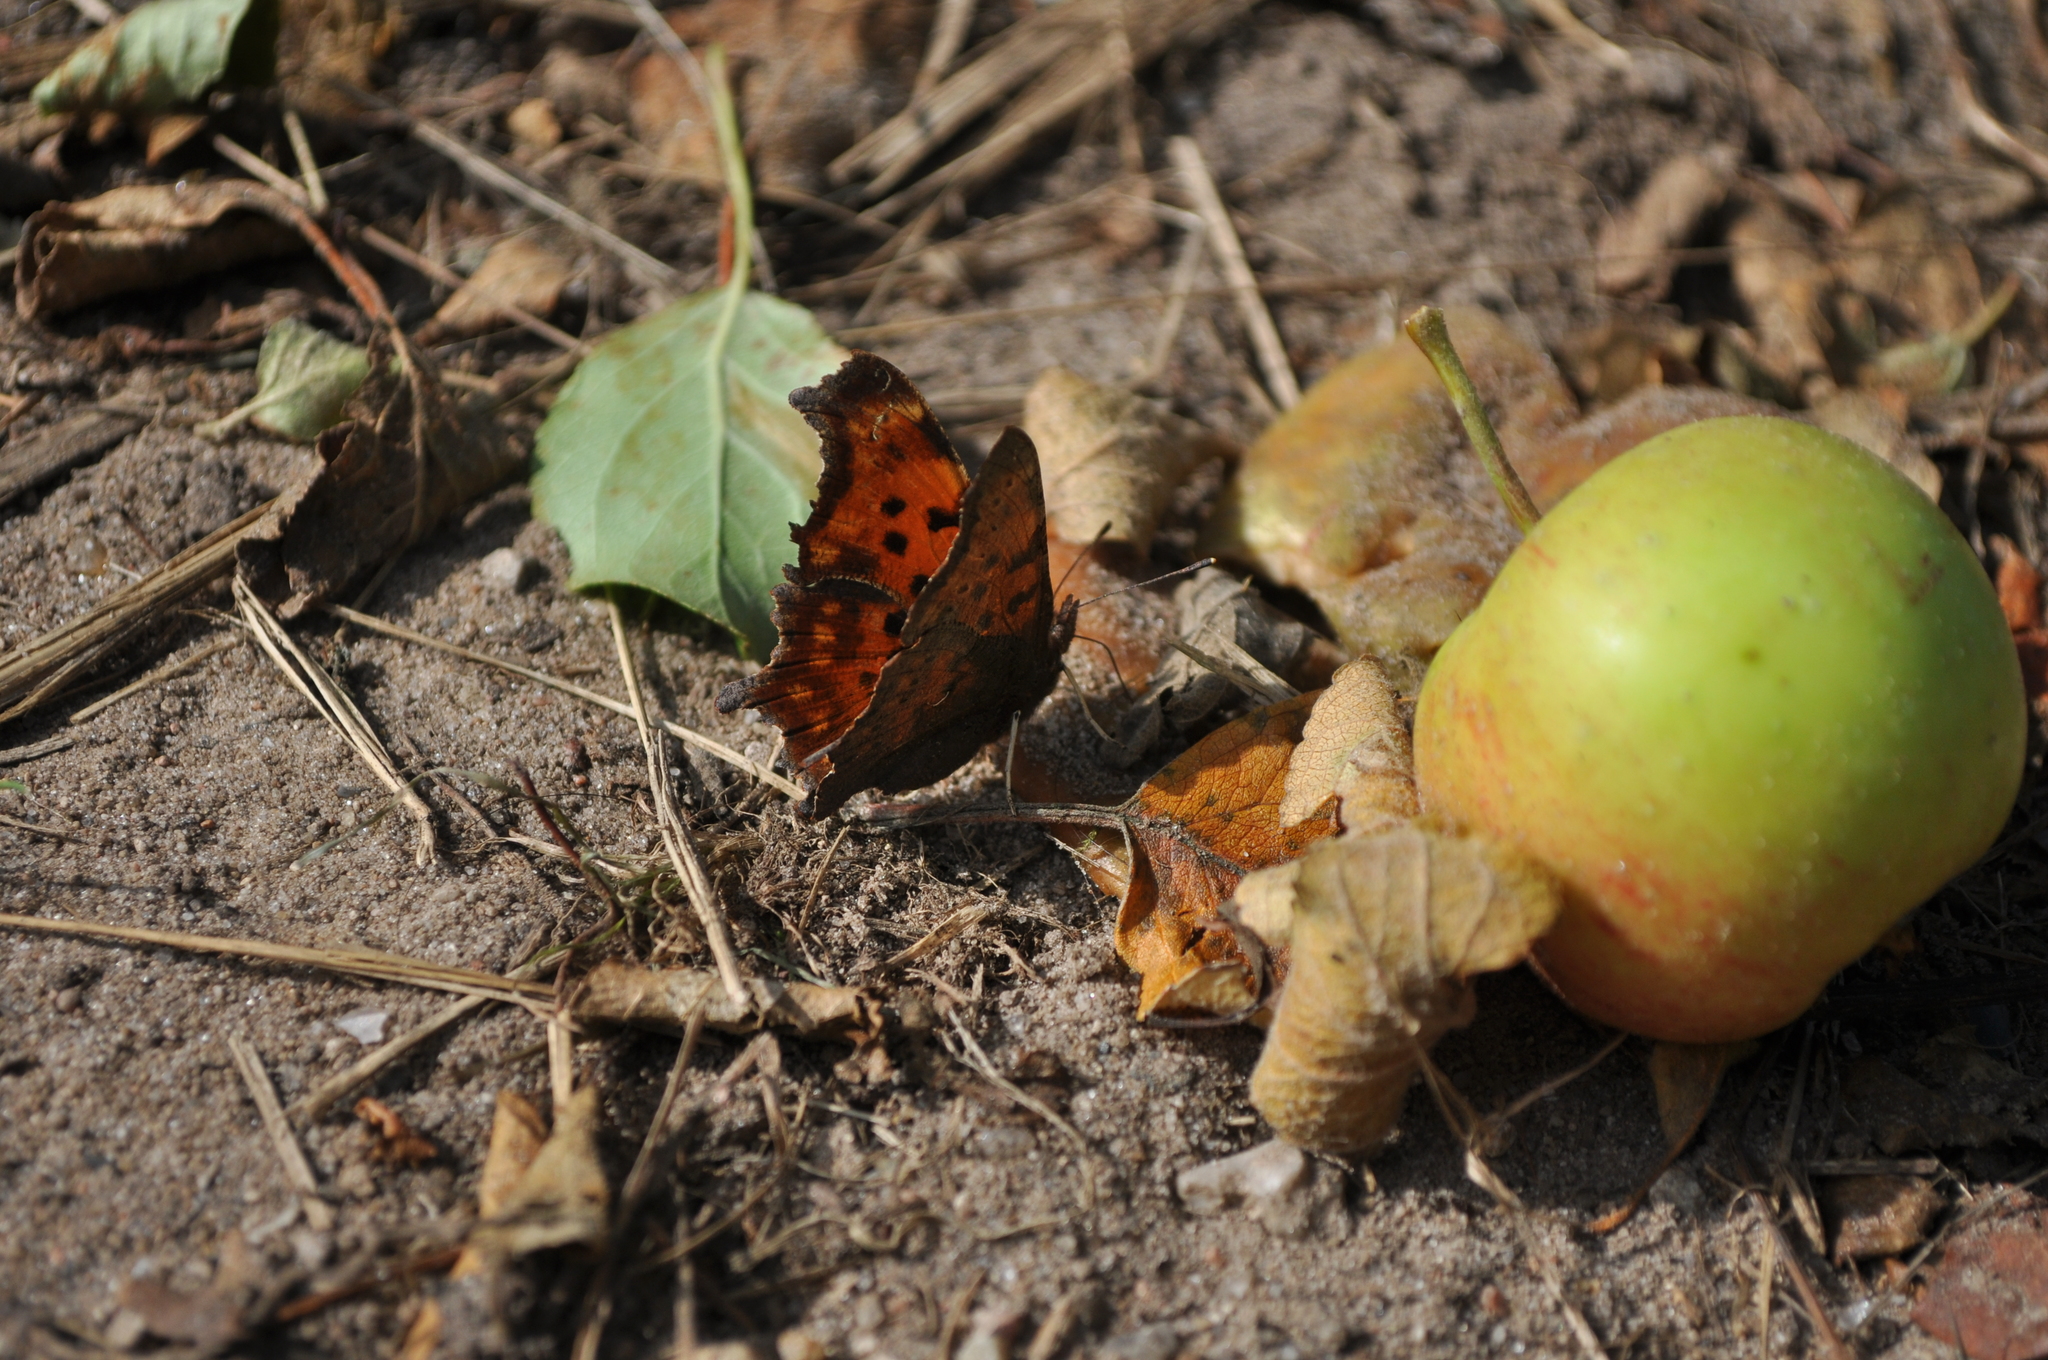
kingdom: Animalia
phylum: Arthropoda
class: Insecta
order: Lepidoptera
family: Nymphalidae
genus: Polygonia
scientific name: Polygonia c-album
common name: Comma
